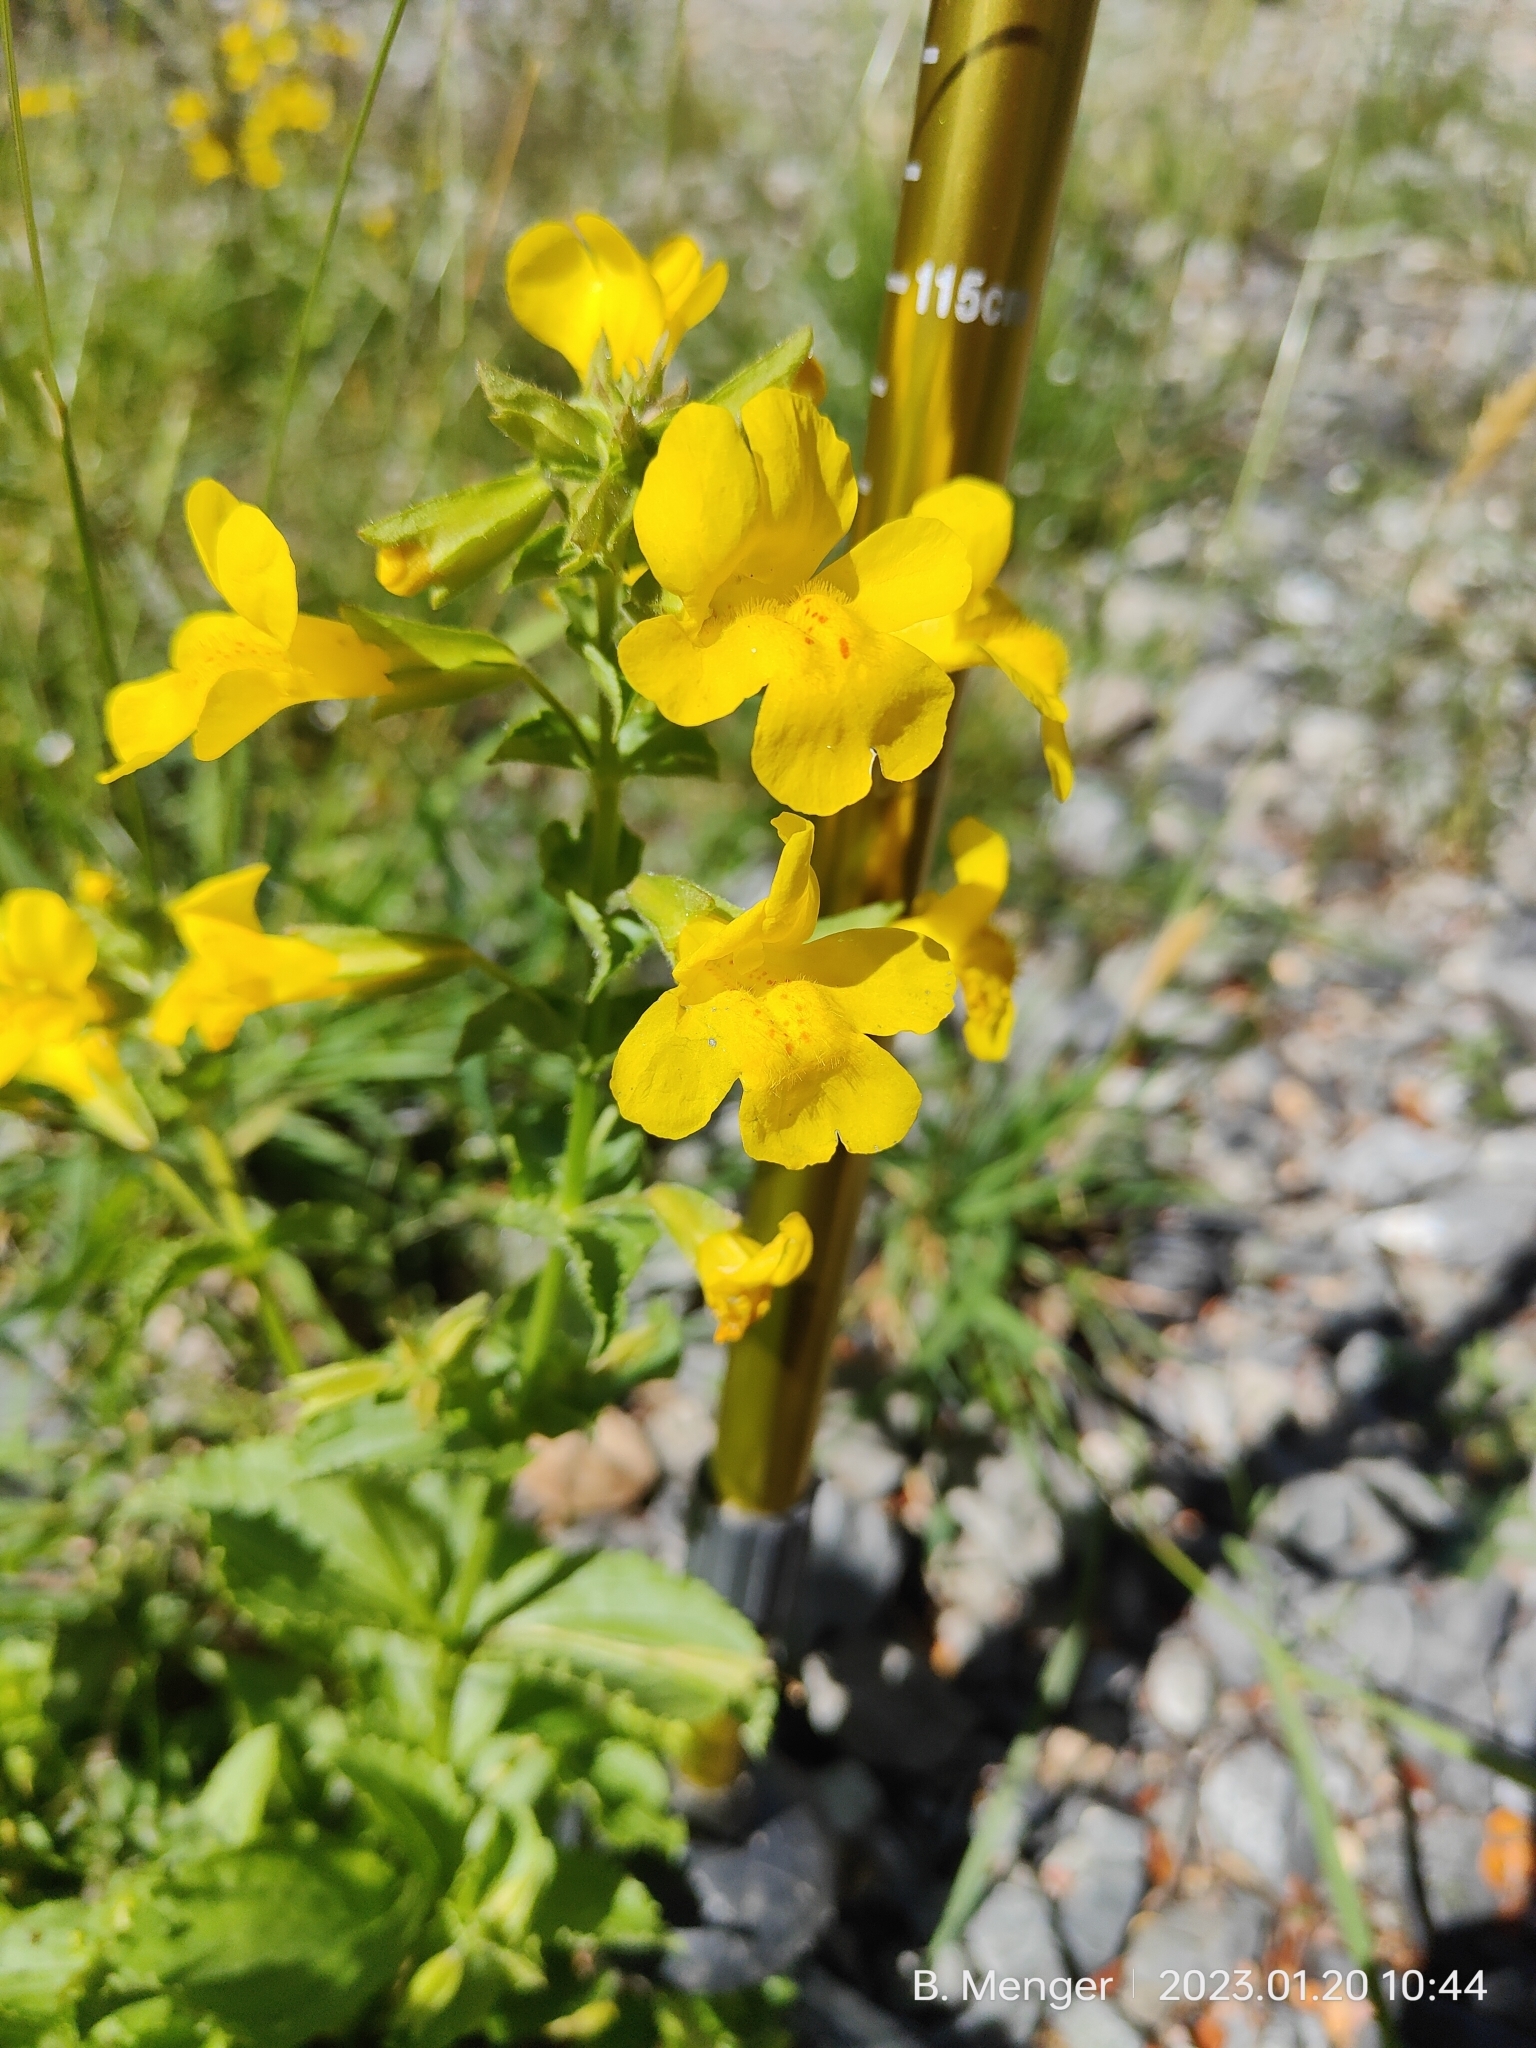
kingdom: Plantae
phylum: Tracheophyta
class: Magnoliopsida
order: Lamiales
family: Phrymaceae
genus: Erythranthe
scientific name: Erythranthe guttata
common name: Monkeyflower
